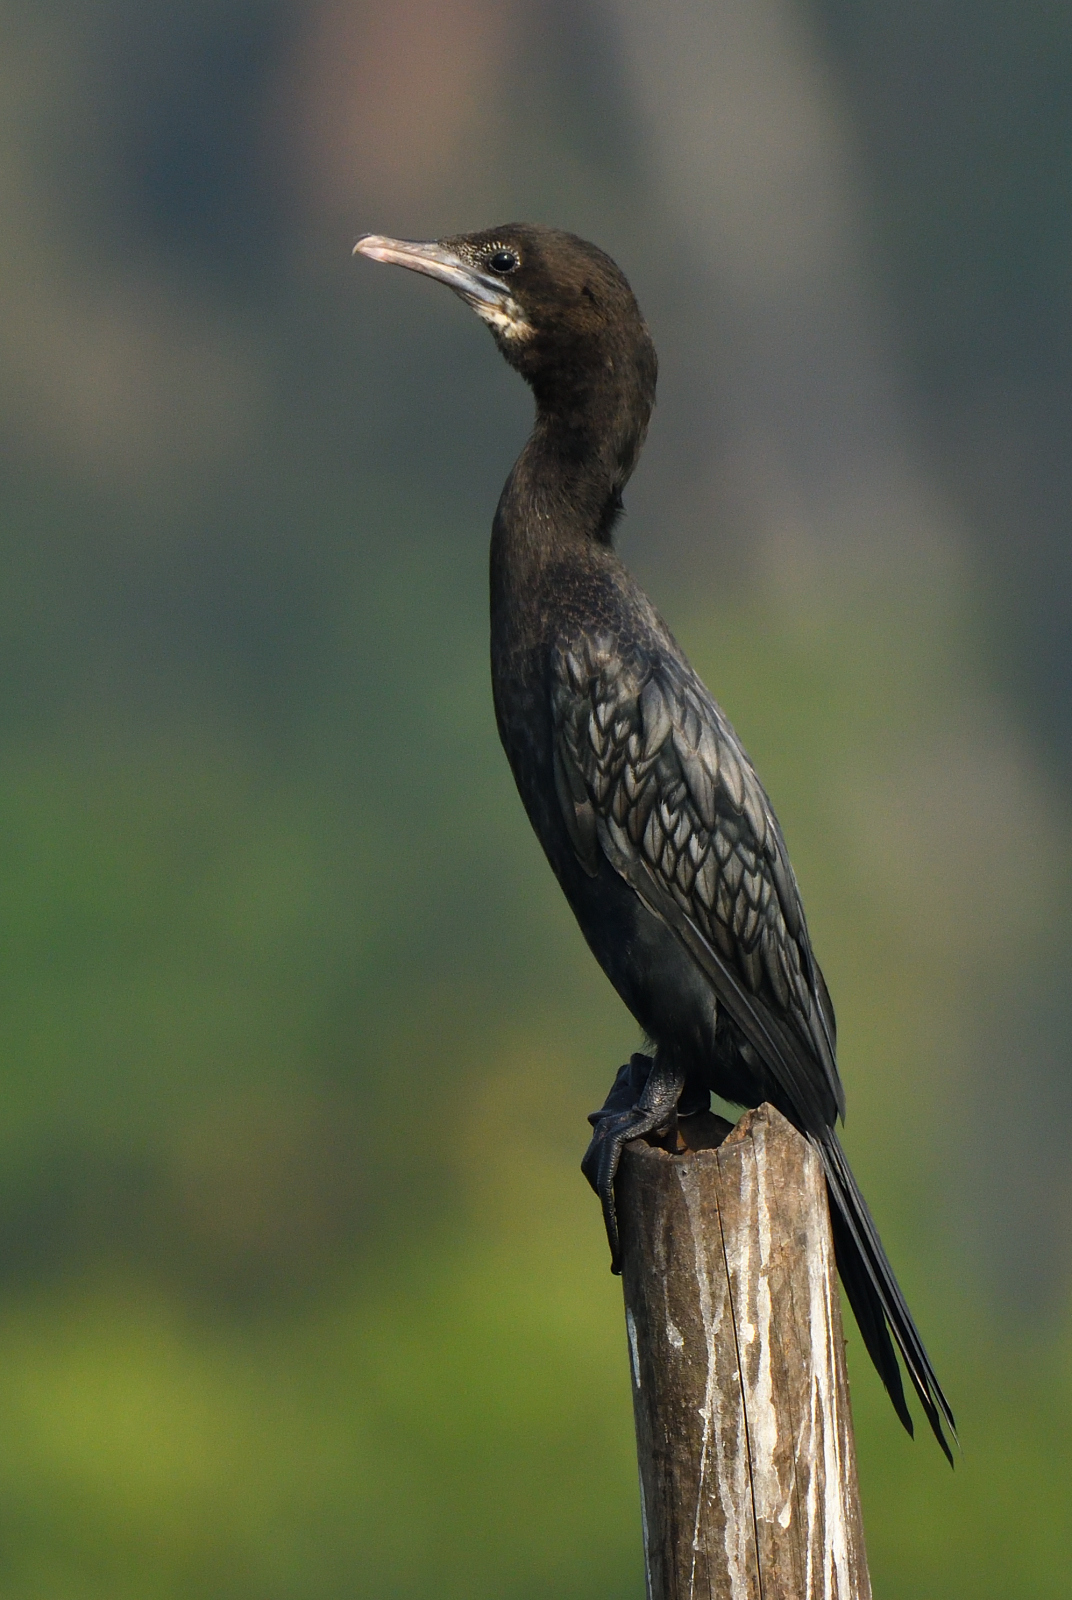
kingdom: Animalia
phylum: Chordata
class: Aves
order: Suliformes
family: Phalacrocoracidae
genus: Microcarbo
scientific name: Microcarbo niger
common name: Little cormorant
